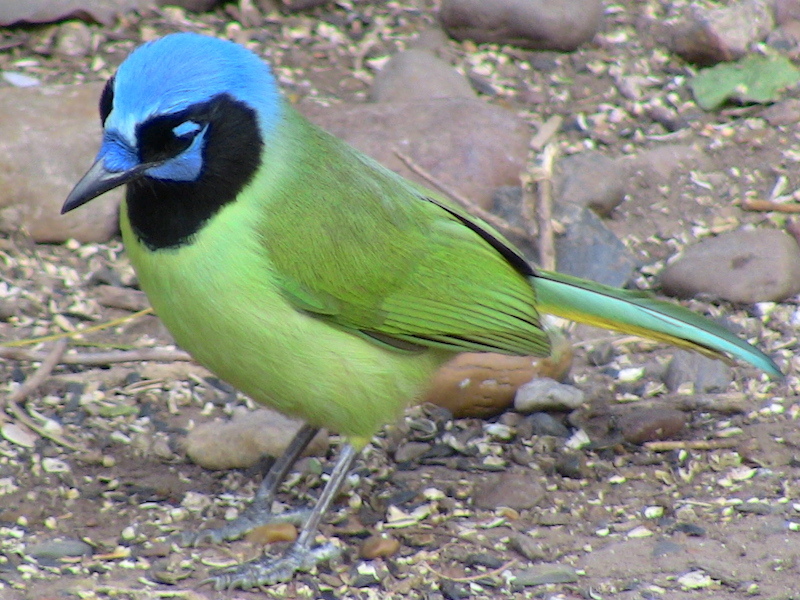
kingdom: Animalia
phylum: Chordata
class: Aves
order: Passeriformes
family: Corvidae
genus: Cyanocorax
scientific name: Cyanocorax yncas
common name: Green jay
